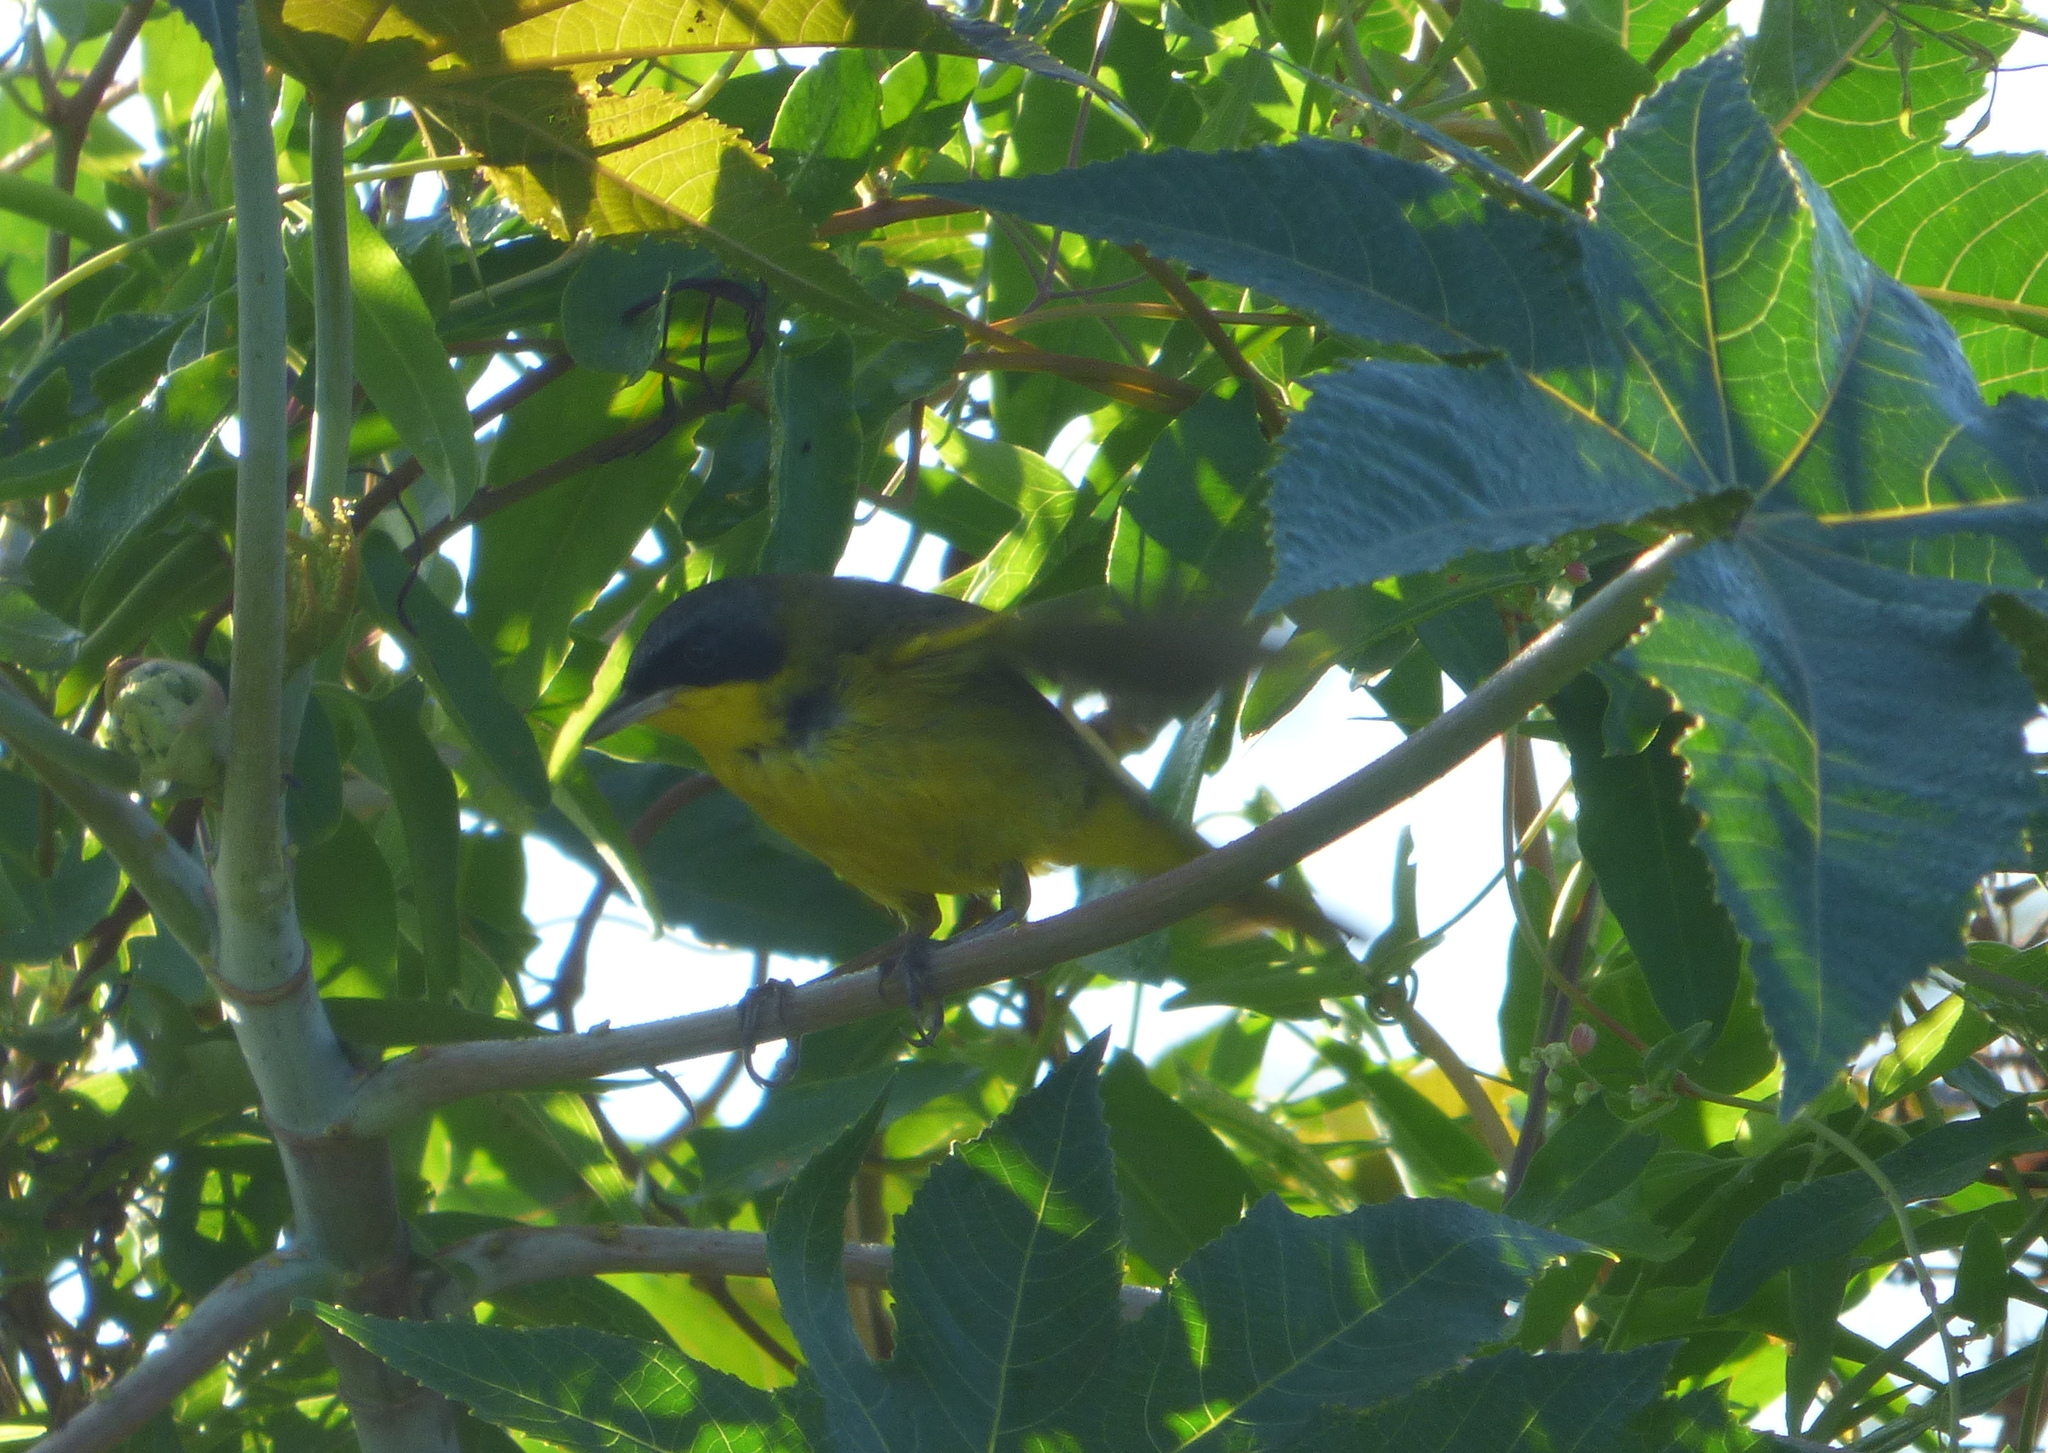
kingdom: Animalia
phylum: Chordata
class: Aves
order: Passeriformes
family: Parulidae
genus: Geothlypis
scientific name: Geothlypis velata
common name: Southern yellowthroat
